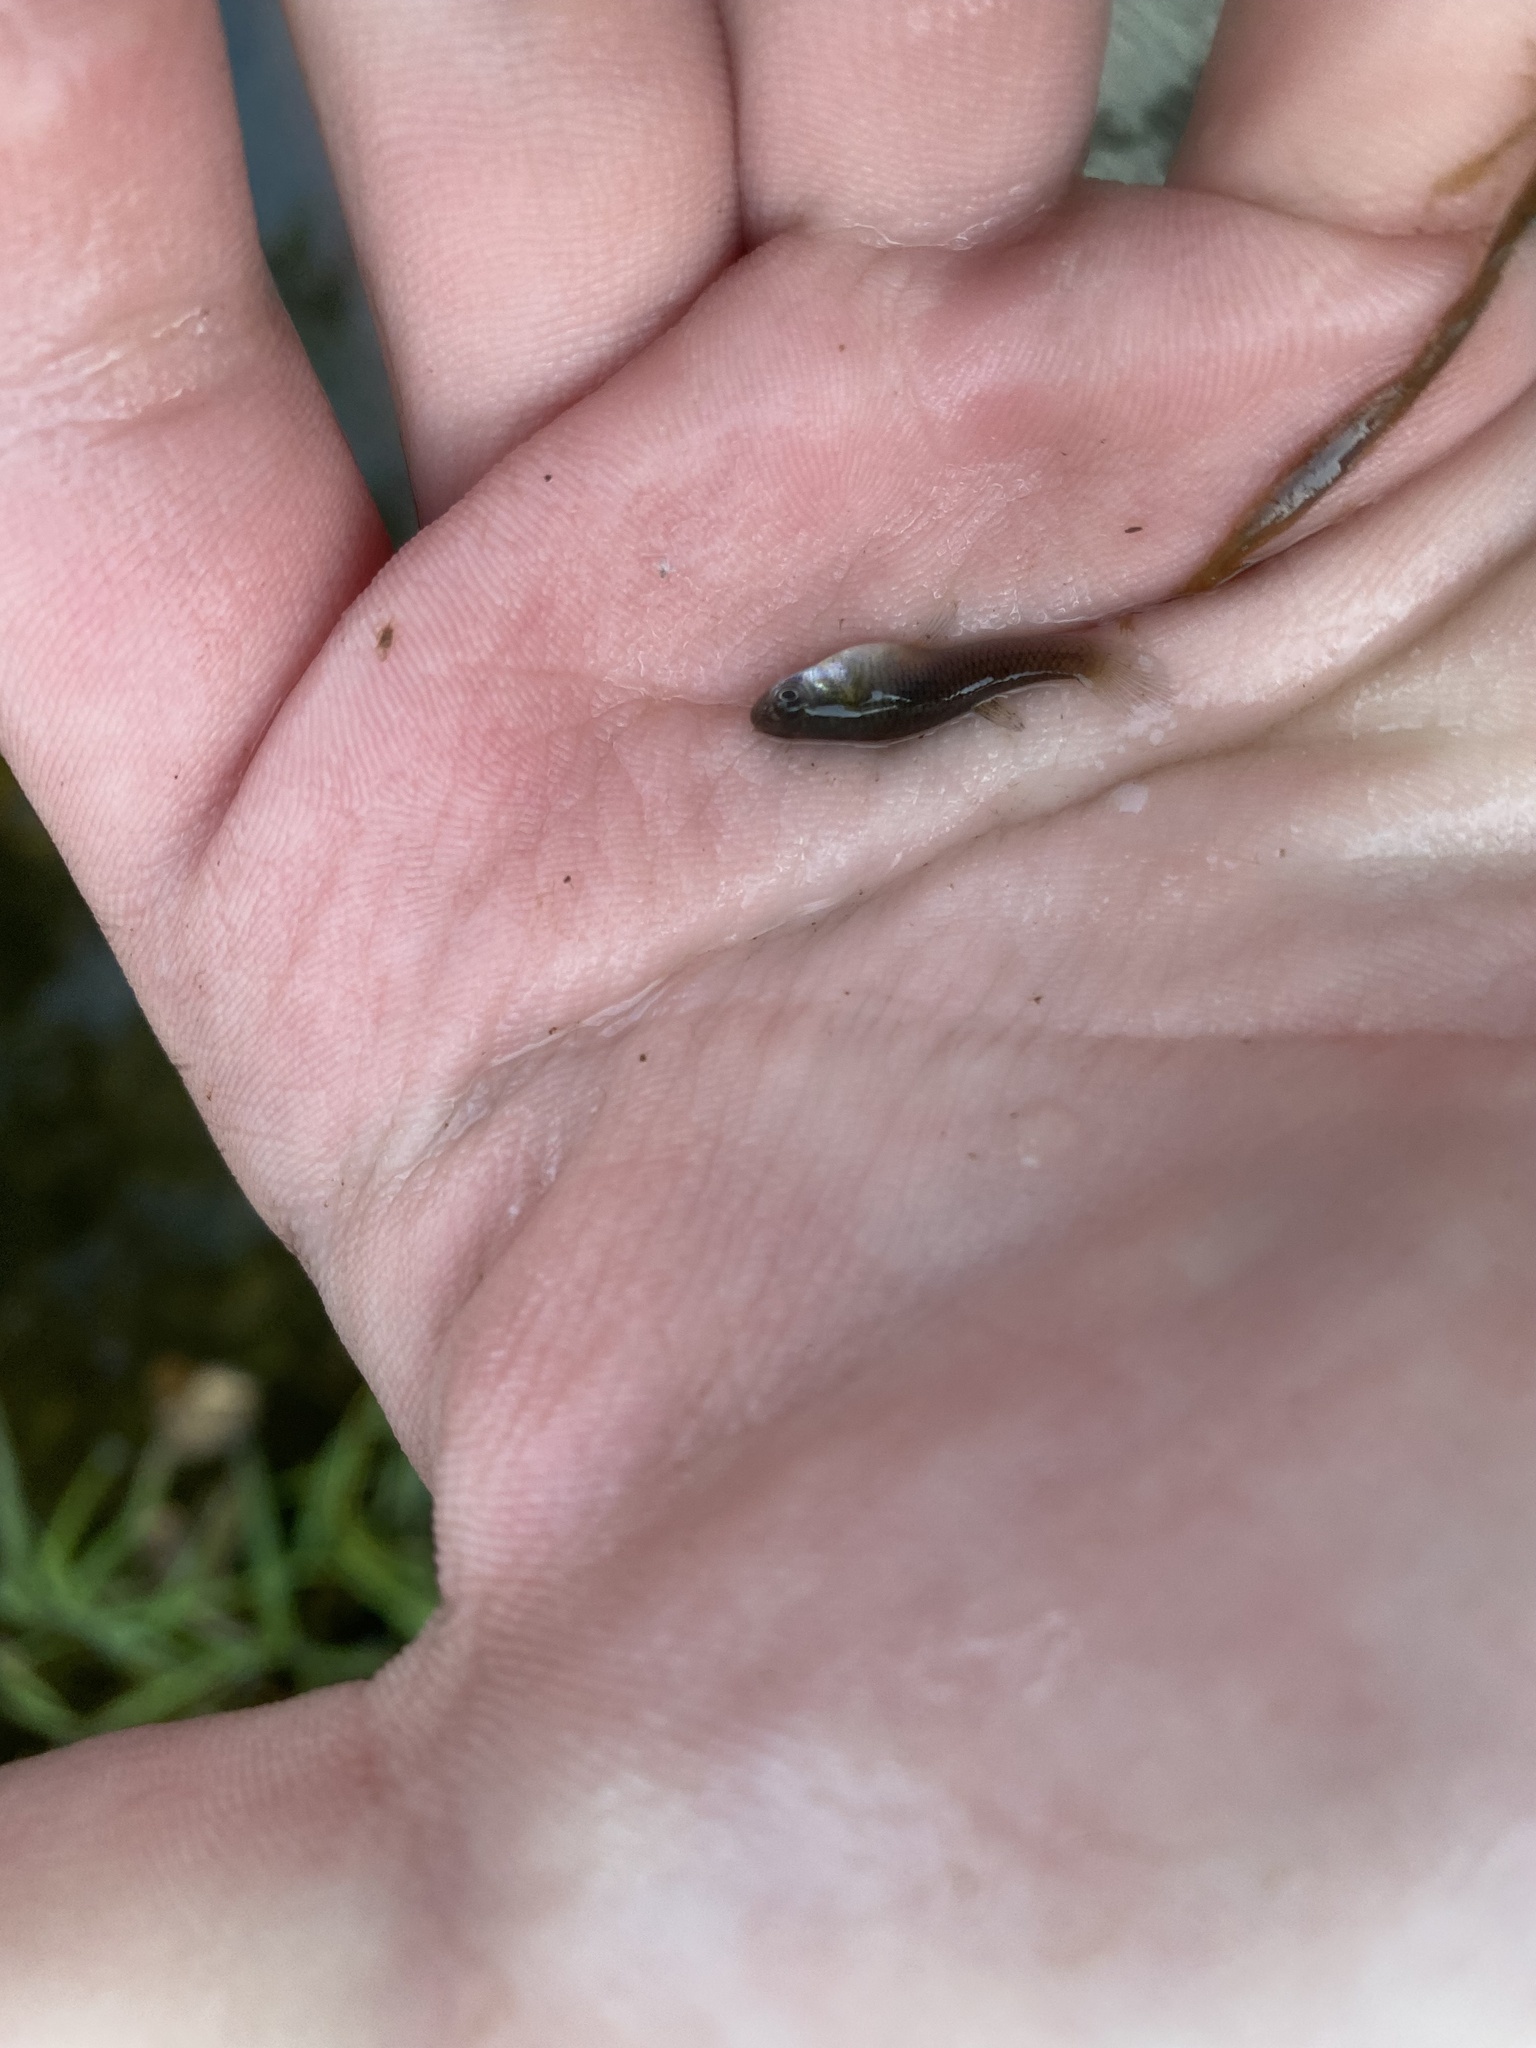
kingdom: Animalia
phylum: Chordata
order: Cyprinodontiformes
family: Poeciliidae
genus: Gambusia
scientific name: Gambusia affinis
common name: Mosquitofish
